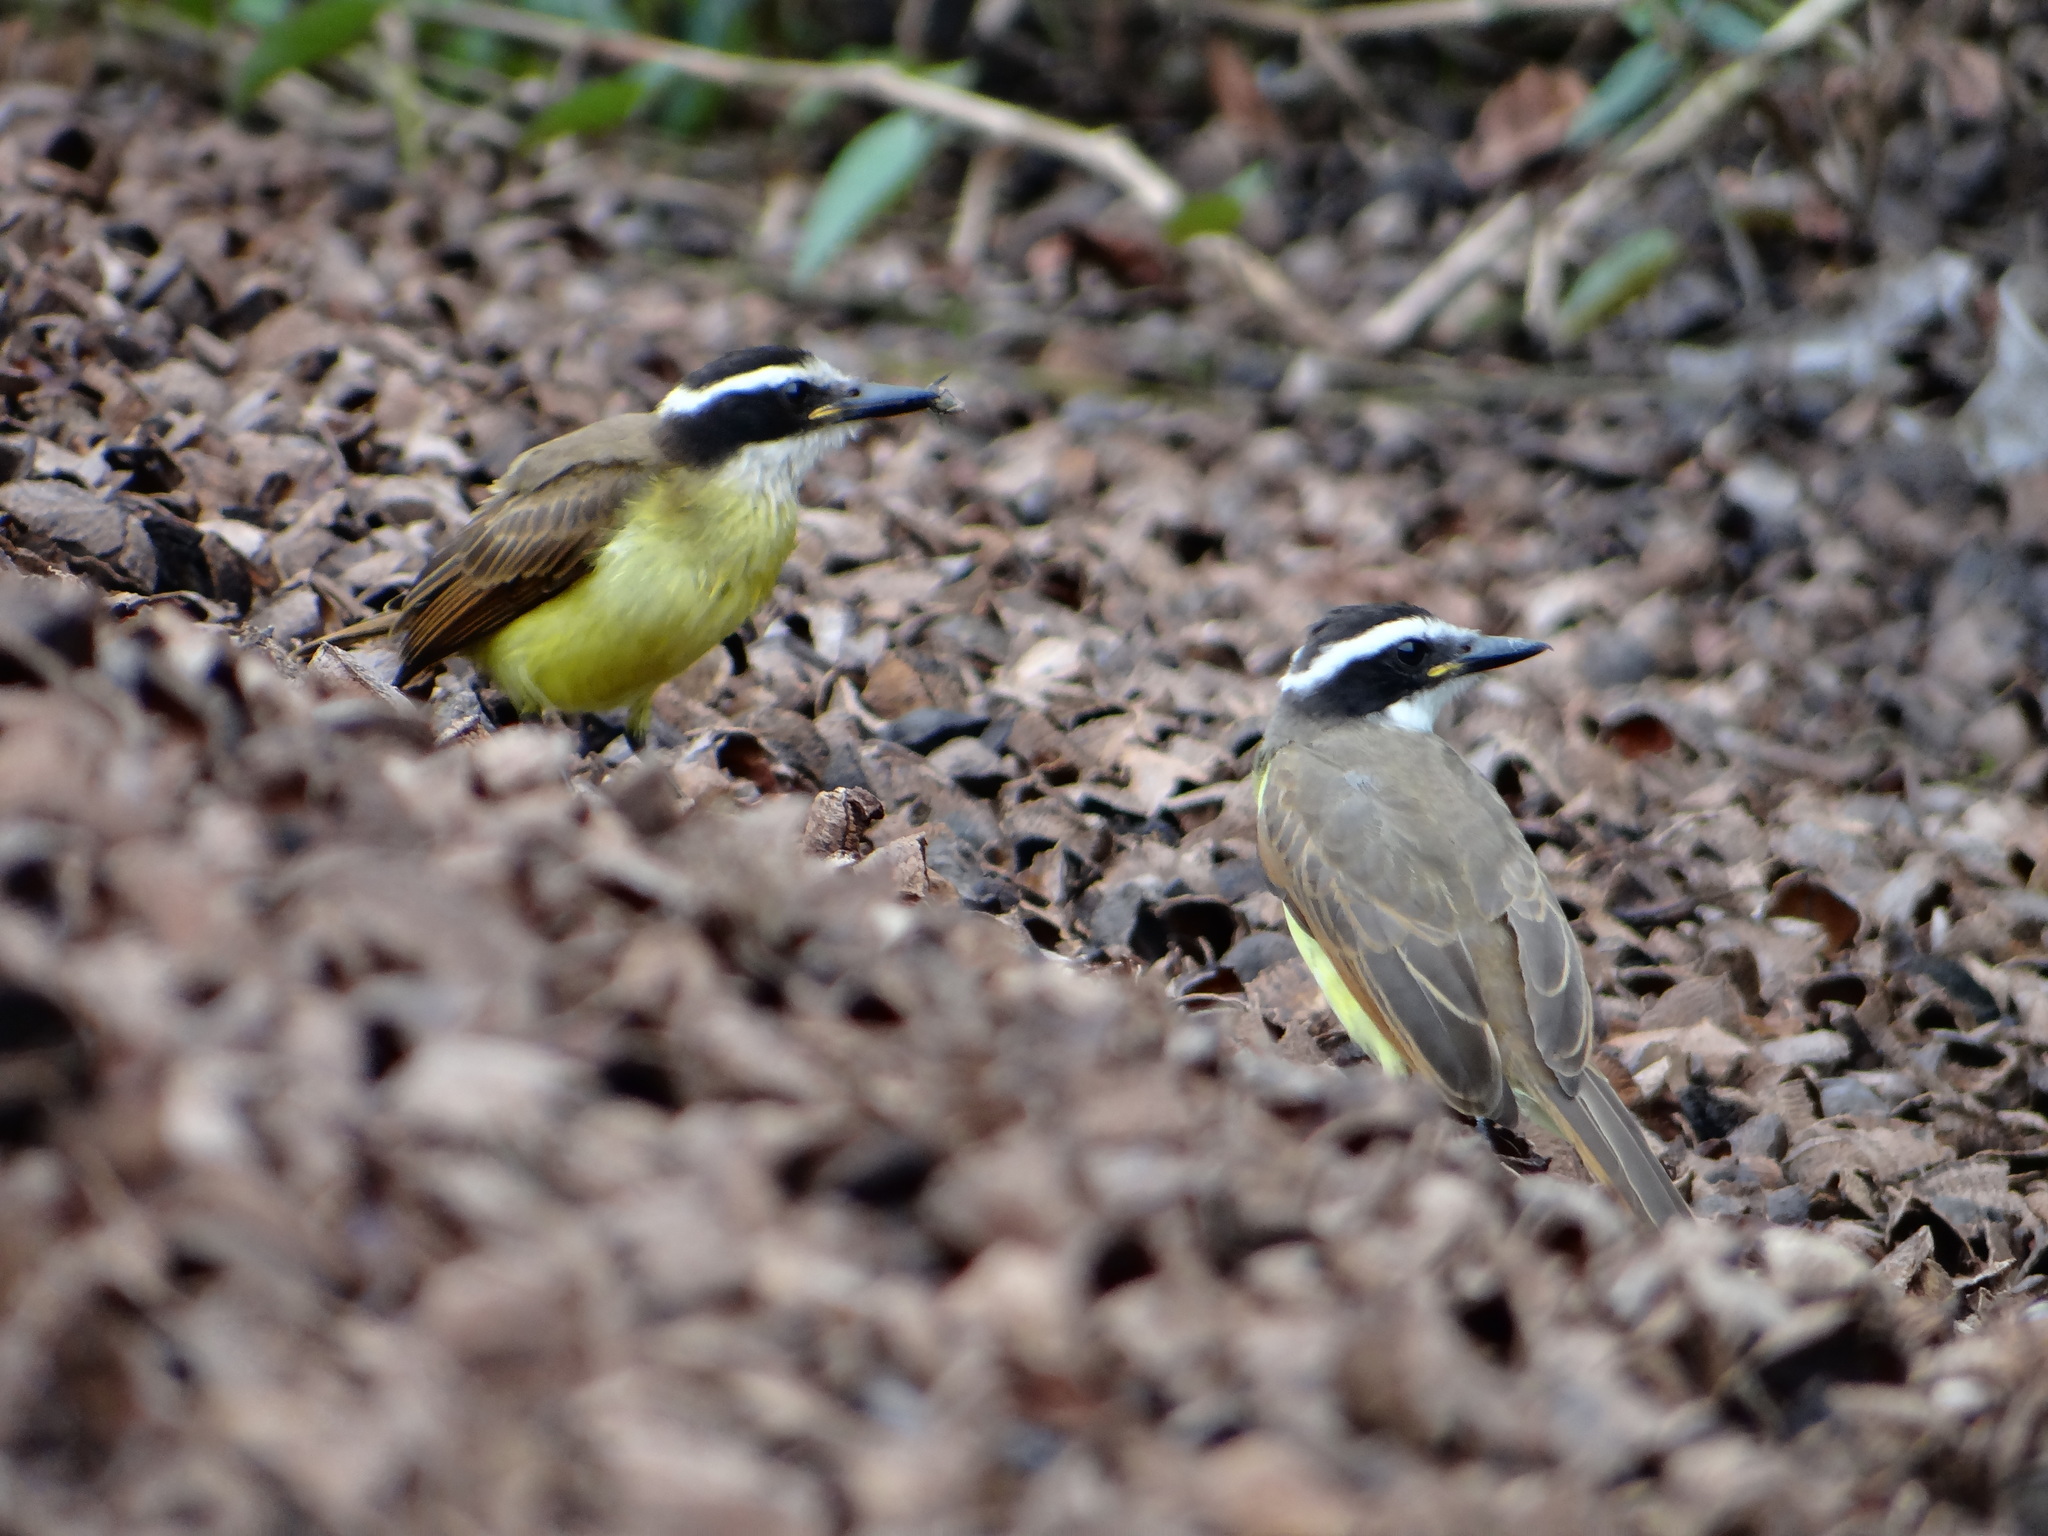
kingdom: Animalia
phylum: Chordata
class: Aves
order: Passeriformes
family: Tyrannidae
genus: Pitangus
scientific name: Pitangus sulphuratus
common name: Great kiskadee
